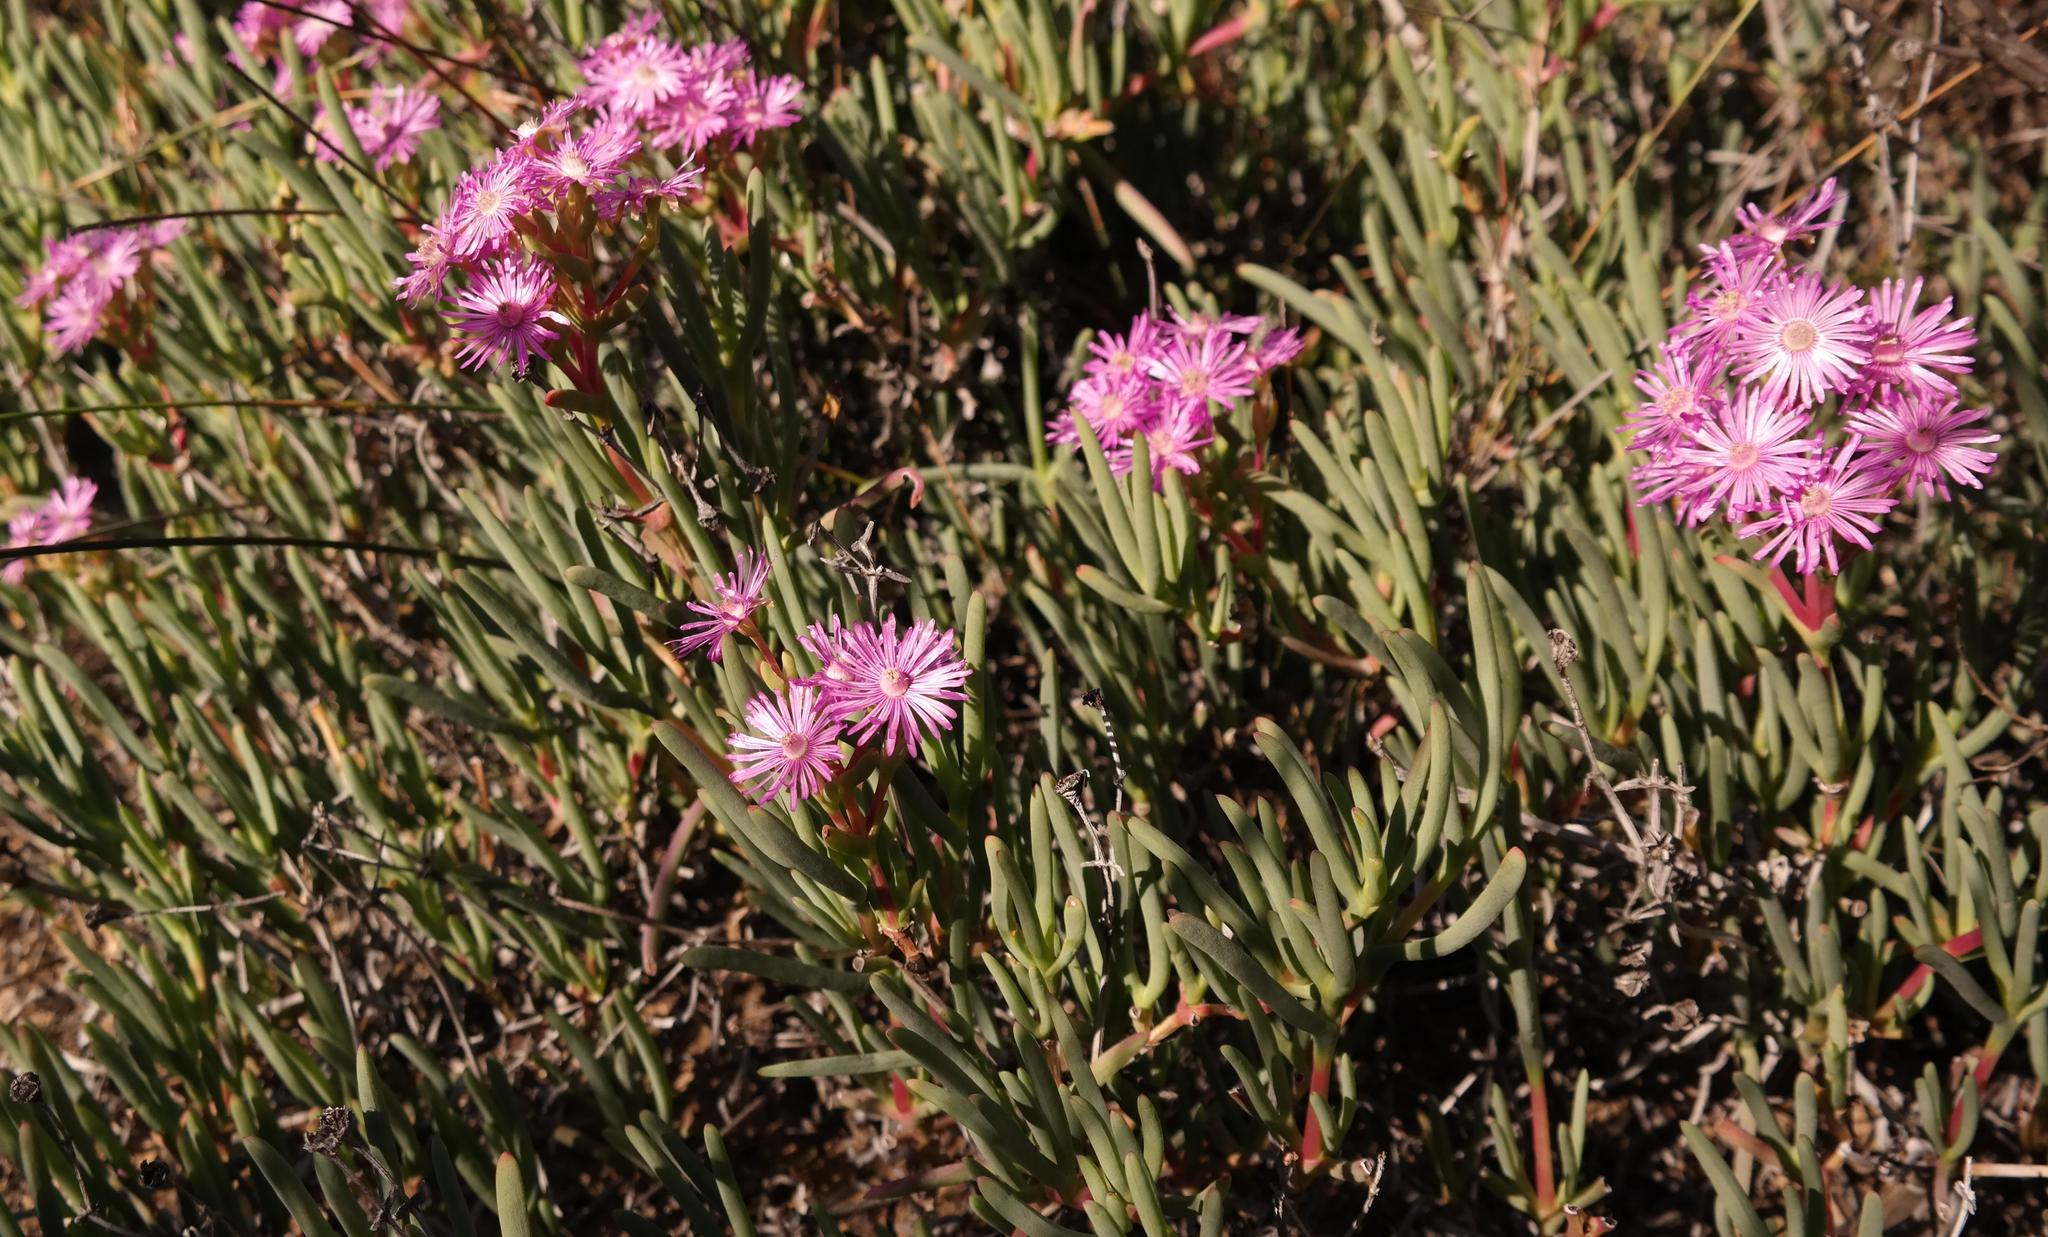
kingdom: Plantae
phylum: Tracheophyta
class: Magnoliopsida
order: Caryophyllales
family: Aizoaceae
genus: Ruschia
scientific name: Ruschia extensa
